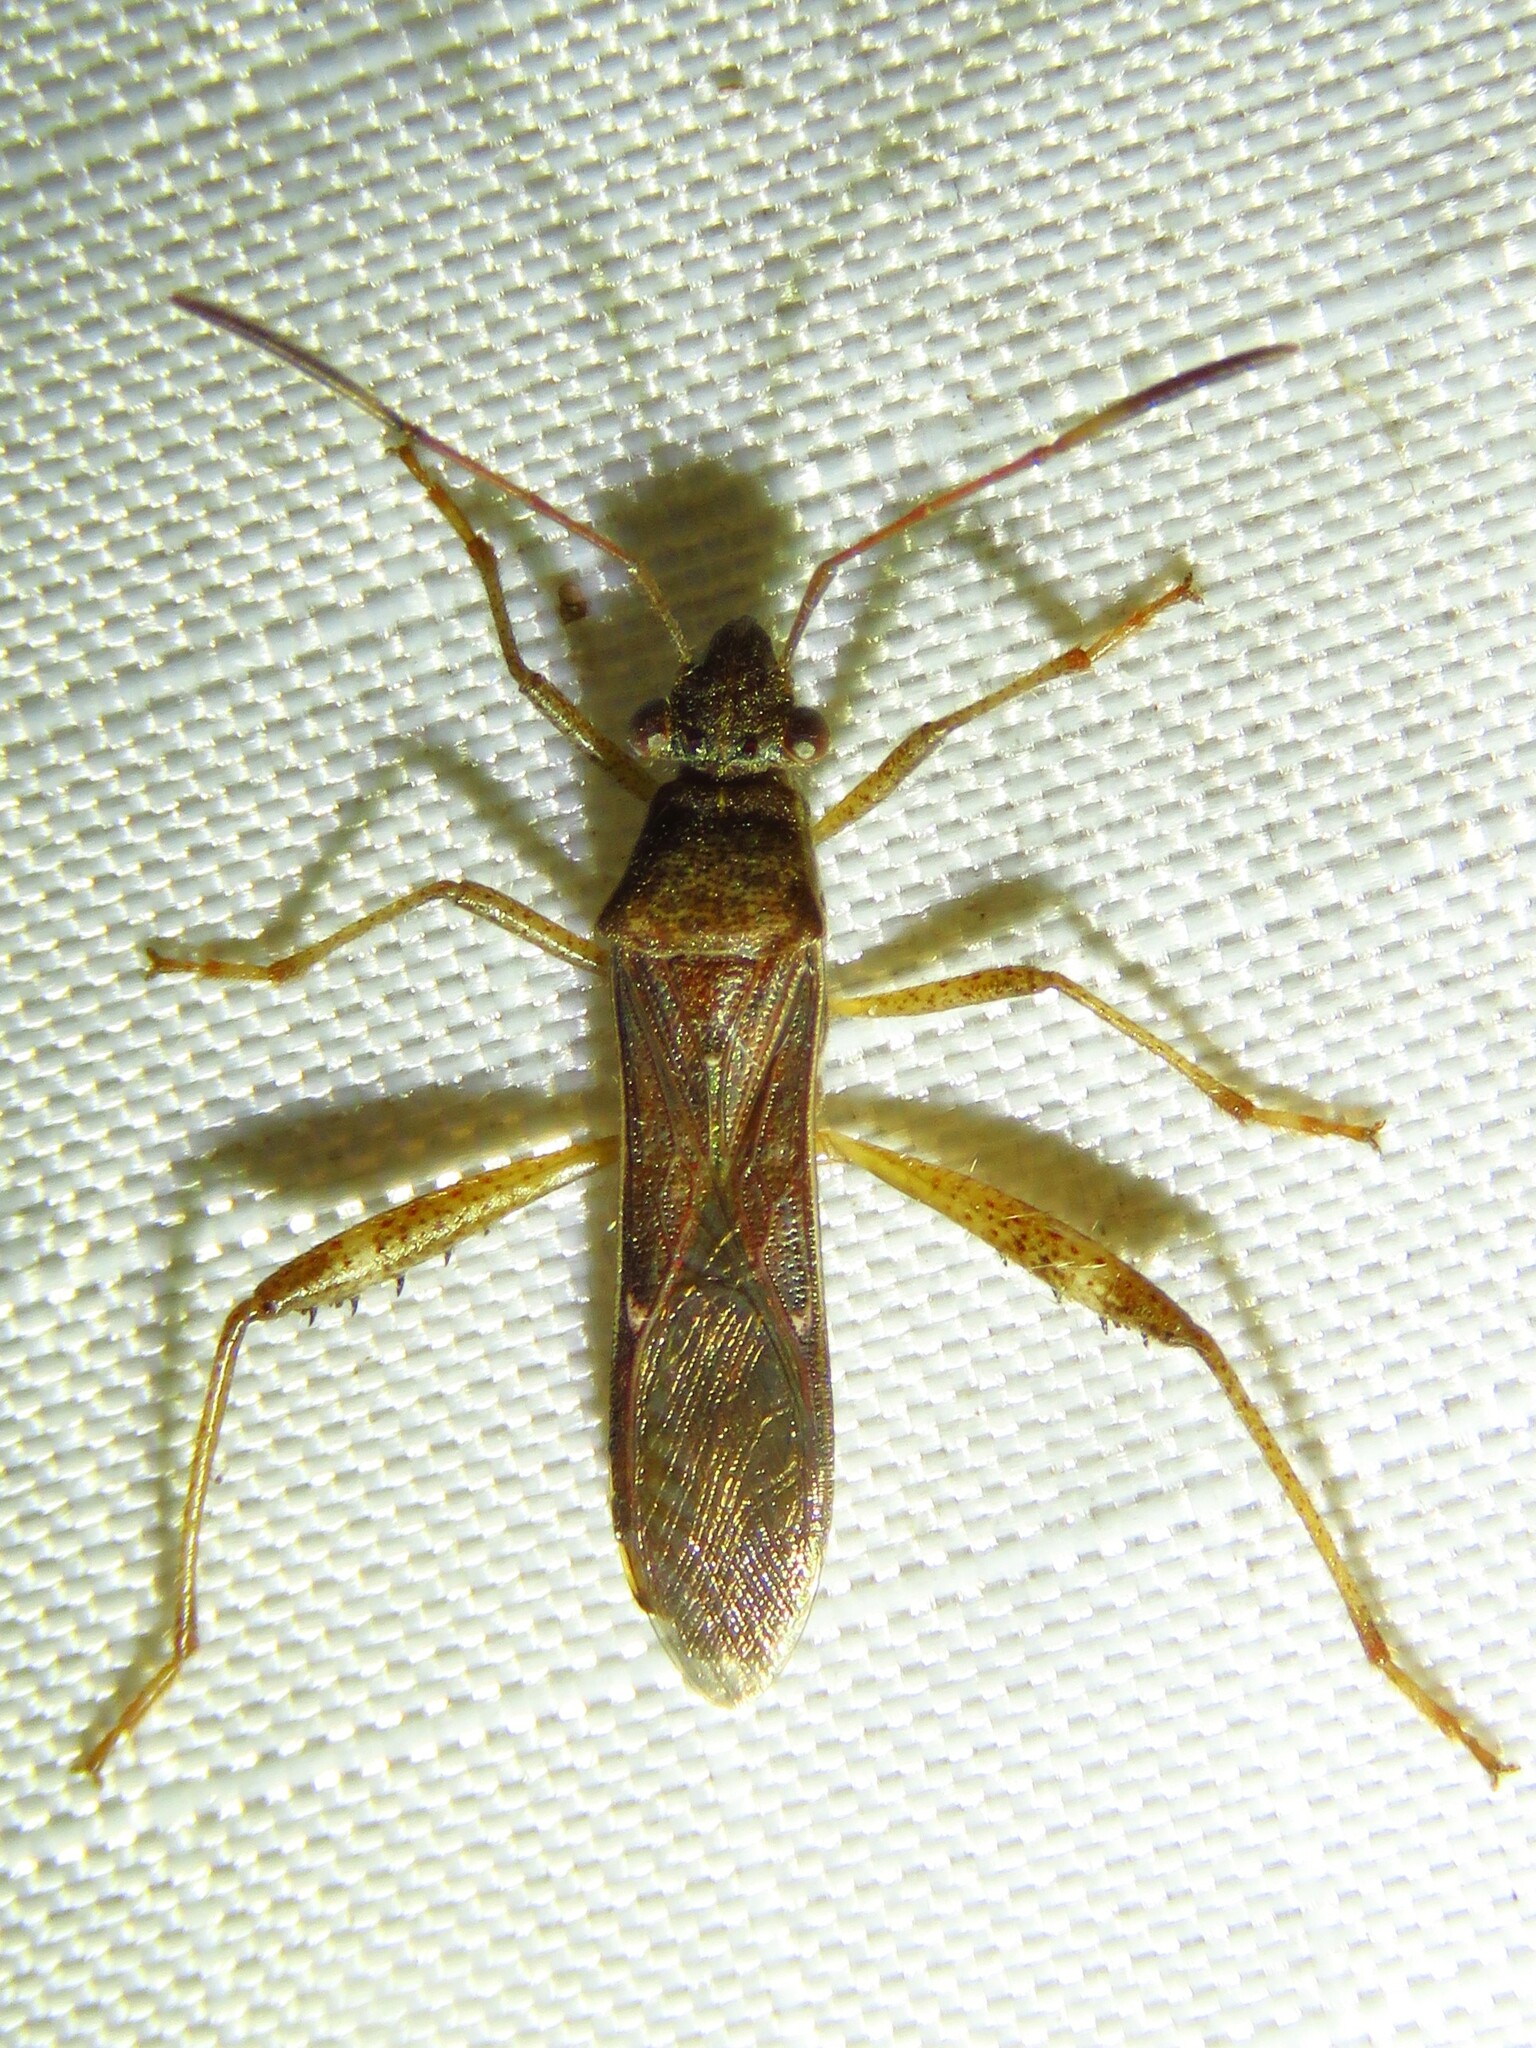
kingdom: Animalia
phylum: Arthropoda
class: Insecta
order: Hemiptera
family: Alydidae
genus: Burtinus
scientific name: Burtinus notatipennis
